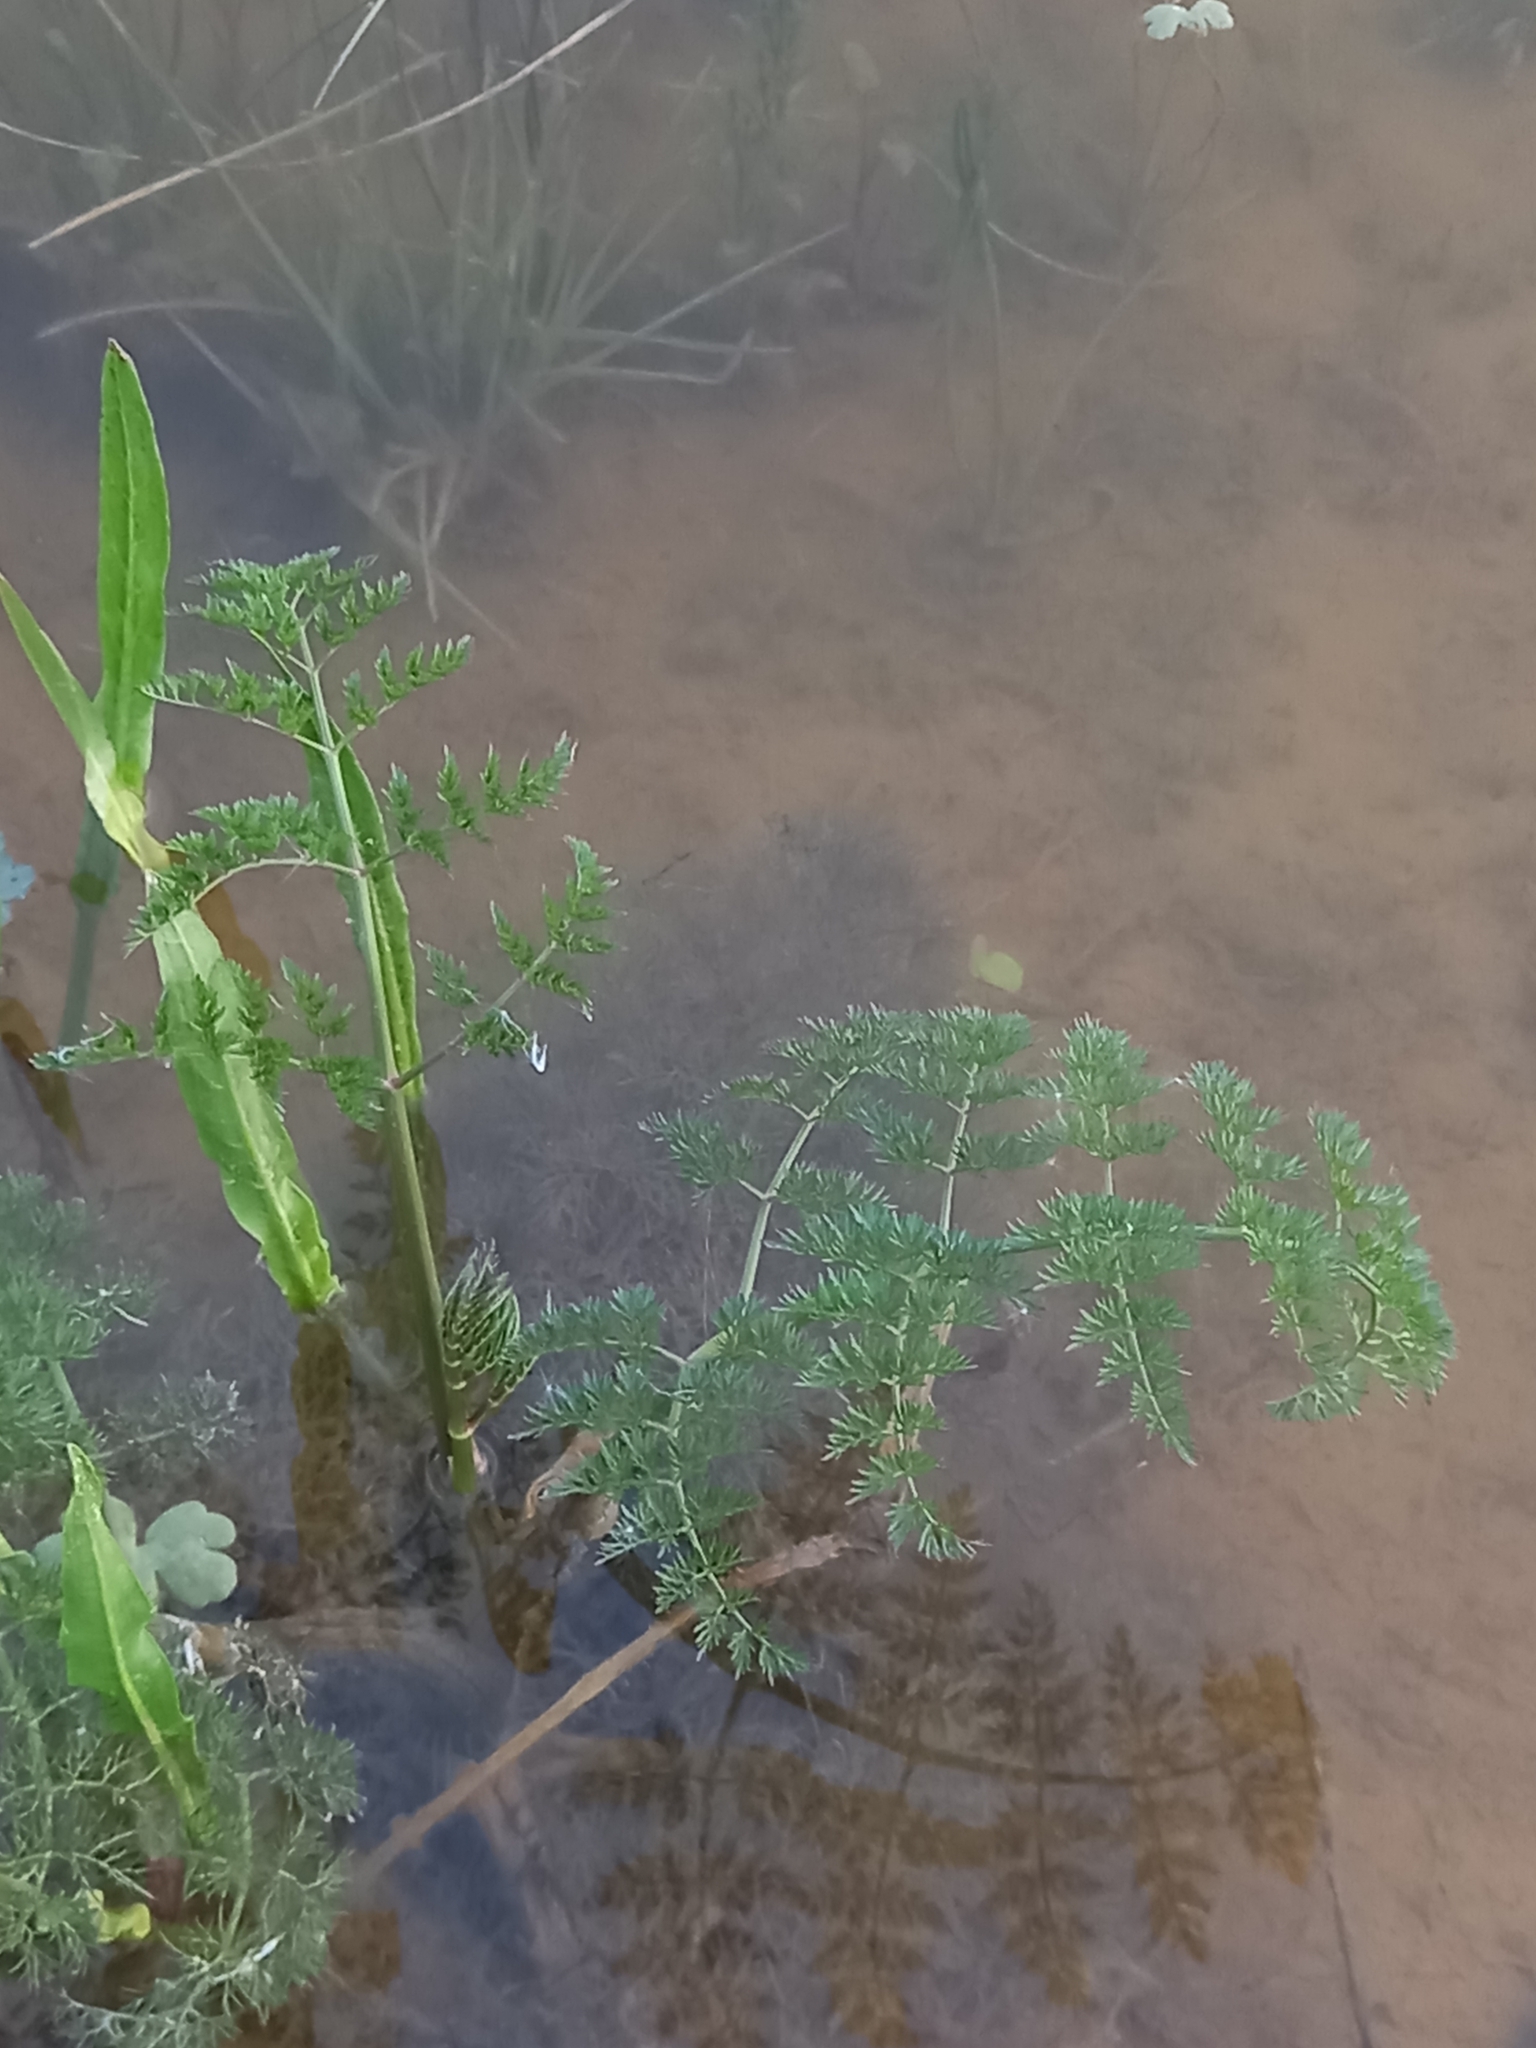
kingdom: Plantae
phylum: Tracheophyta
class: Magnoliopsida
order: Apiales
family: Apiaceae
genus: Oenanthe
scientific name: Oenanthe aquatica
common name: Fine-leaved water-dropwort
